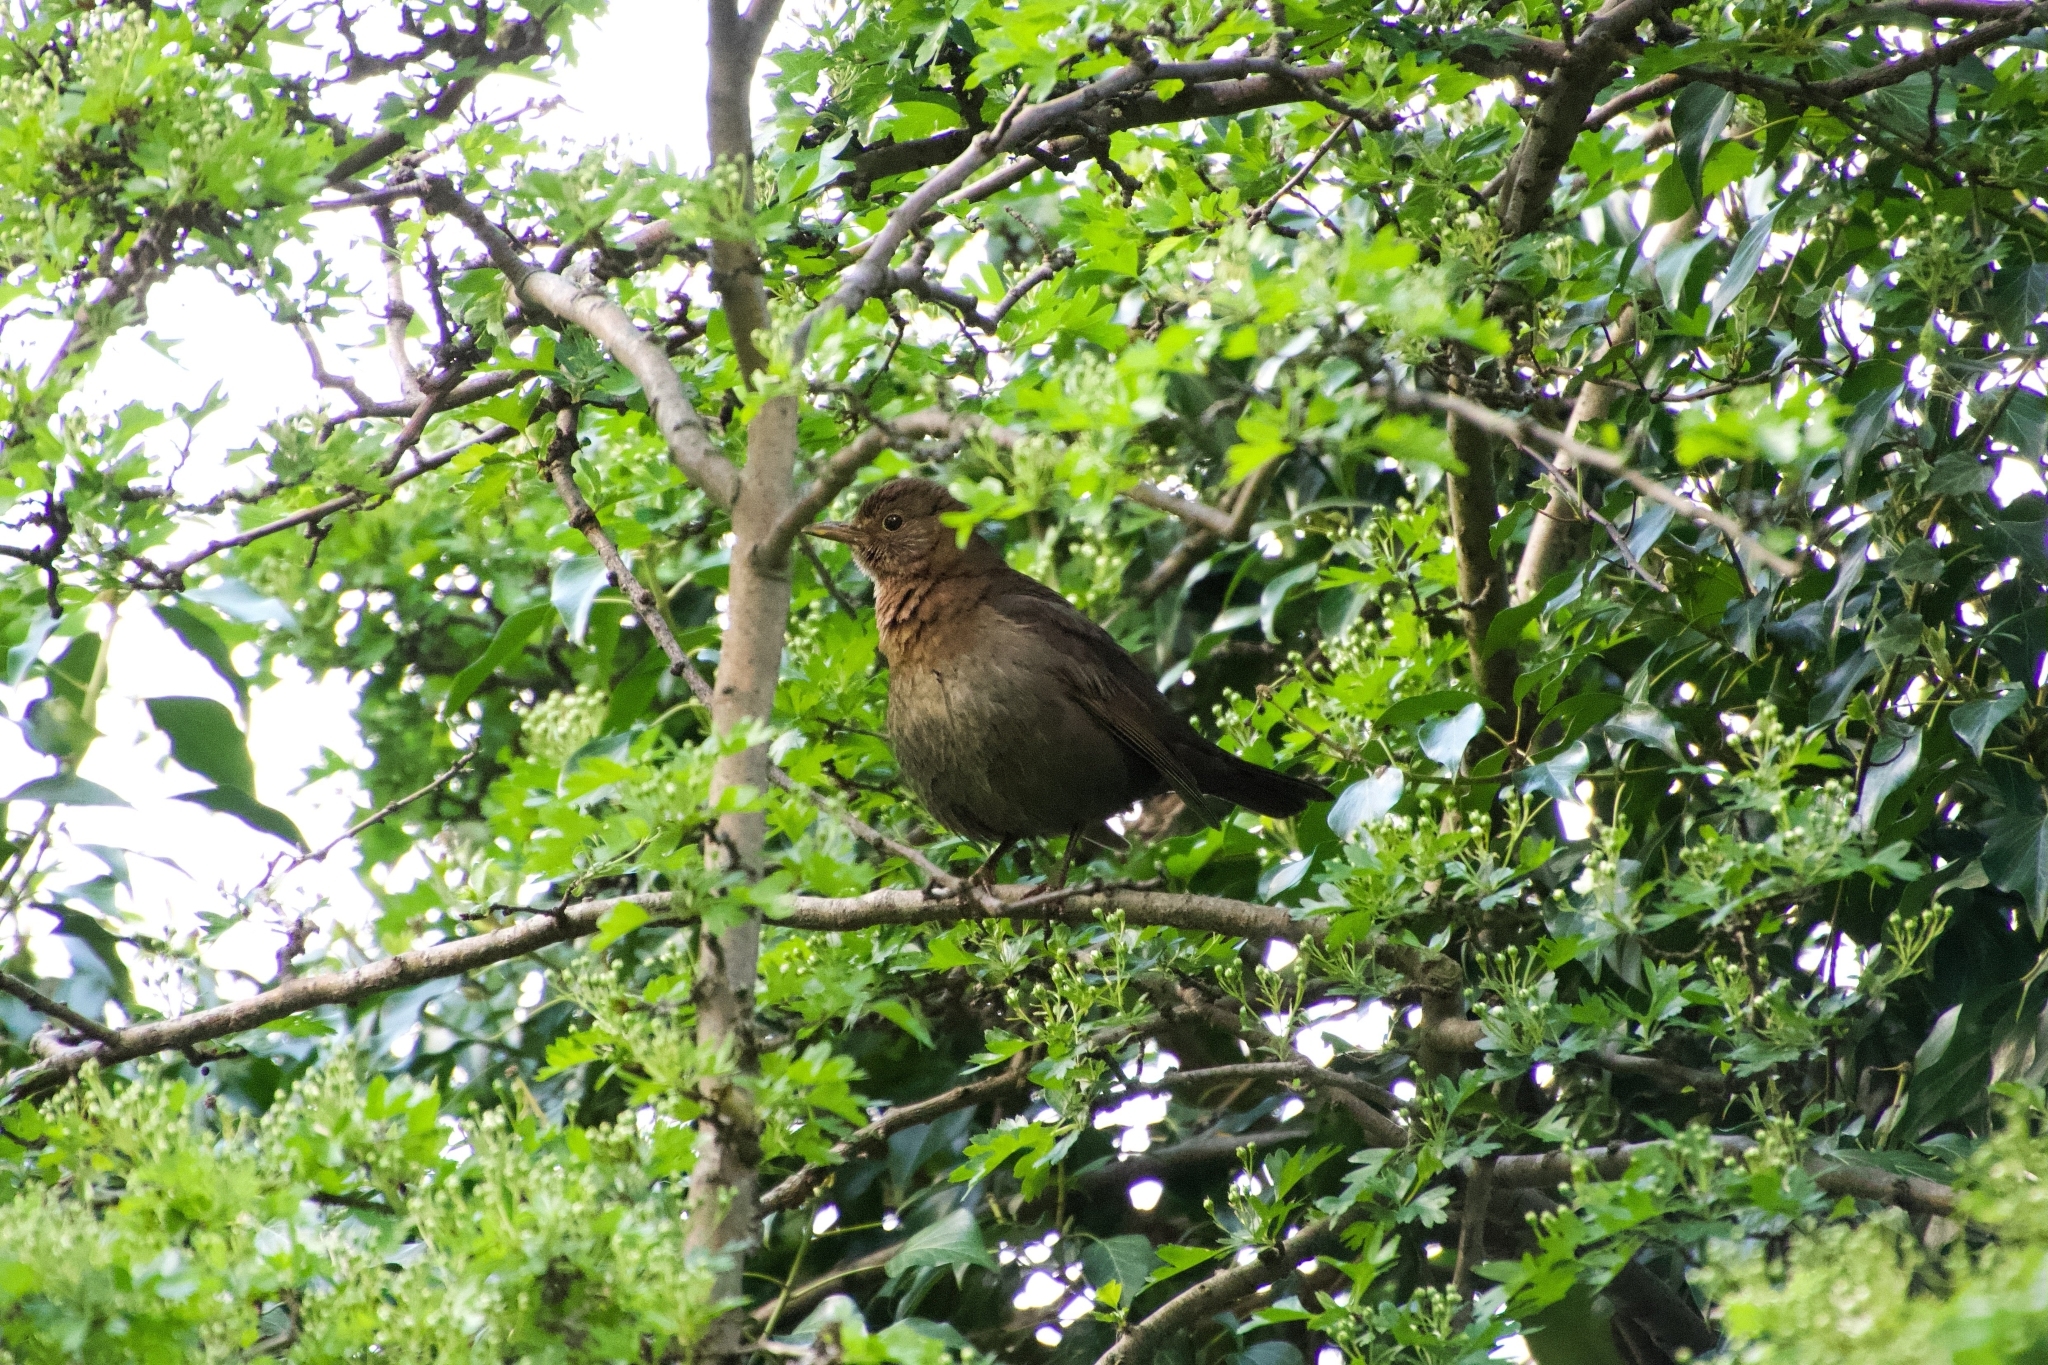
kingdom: Animalia
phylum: Chordata
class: Aves
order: Passeriformes
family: Turdidae
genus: Turdus
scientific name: Turdus merula
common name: Common blackbird
